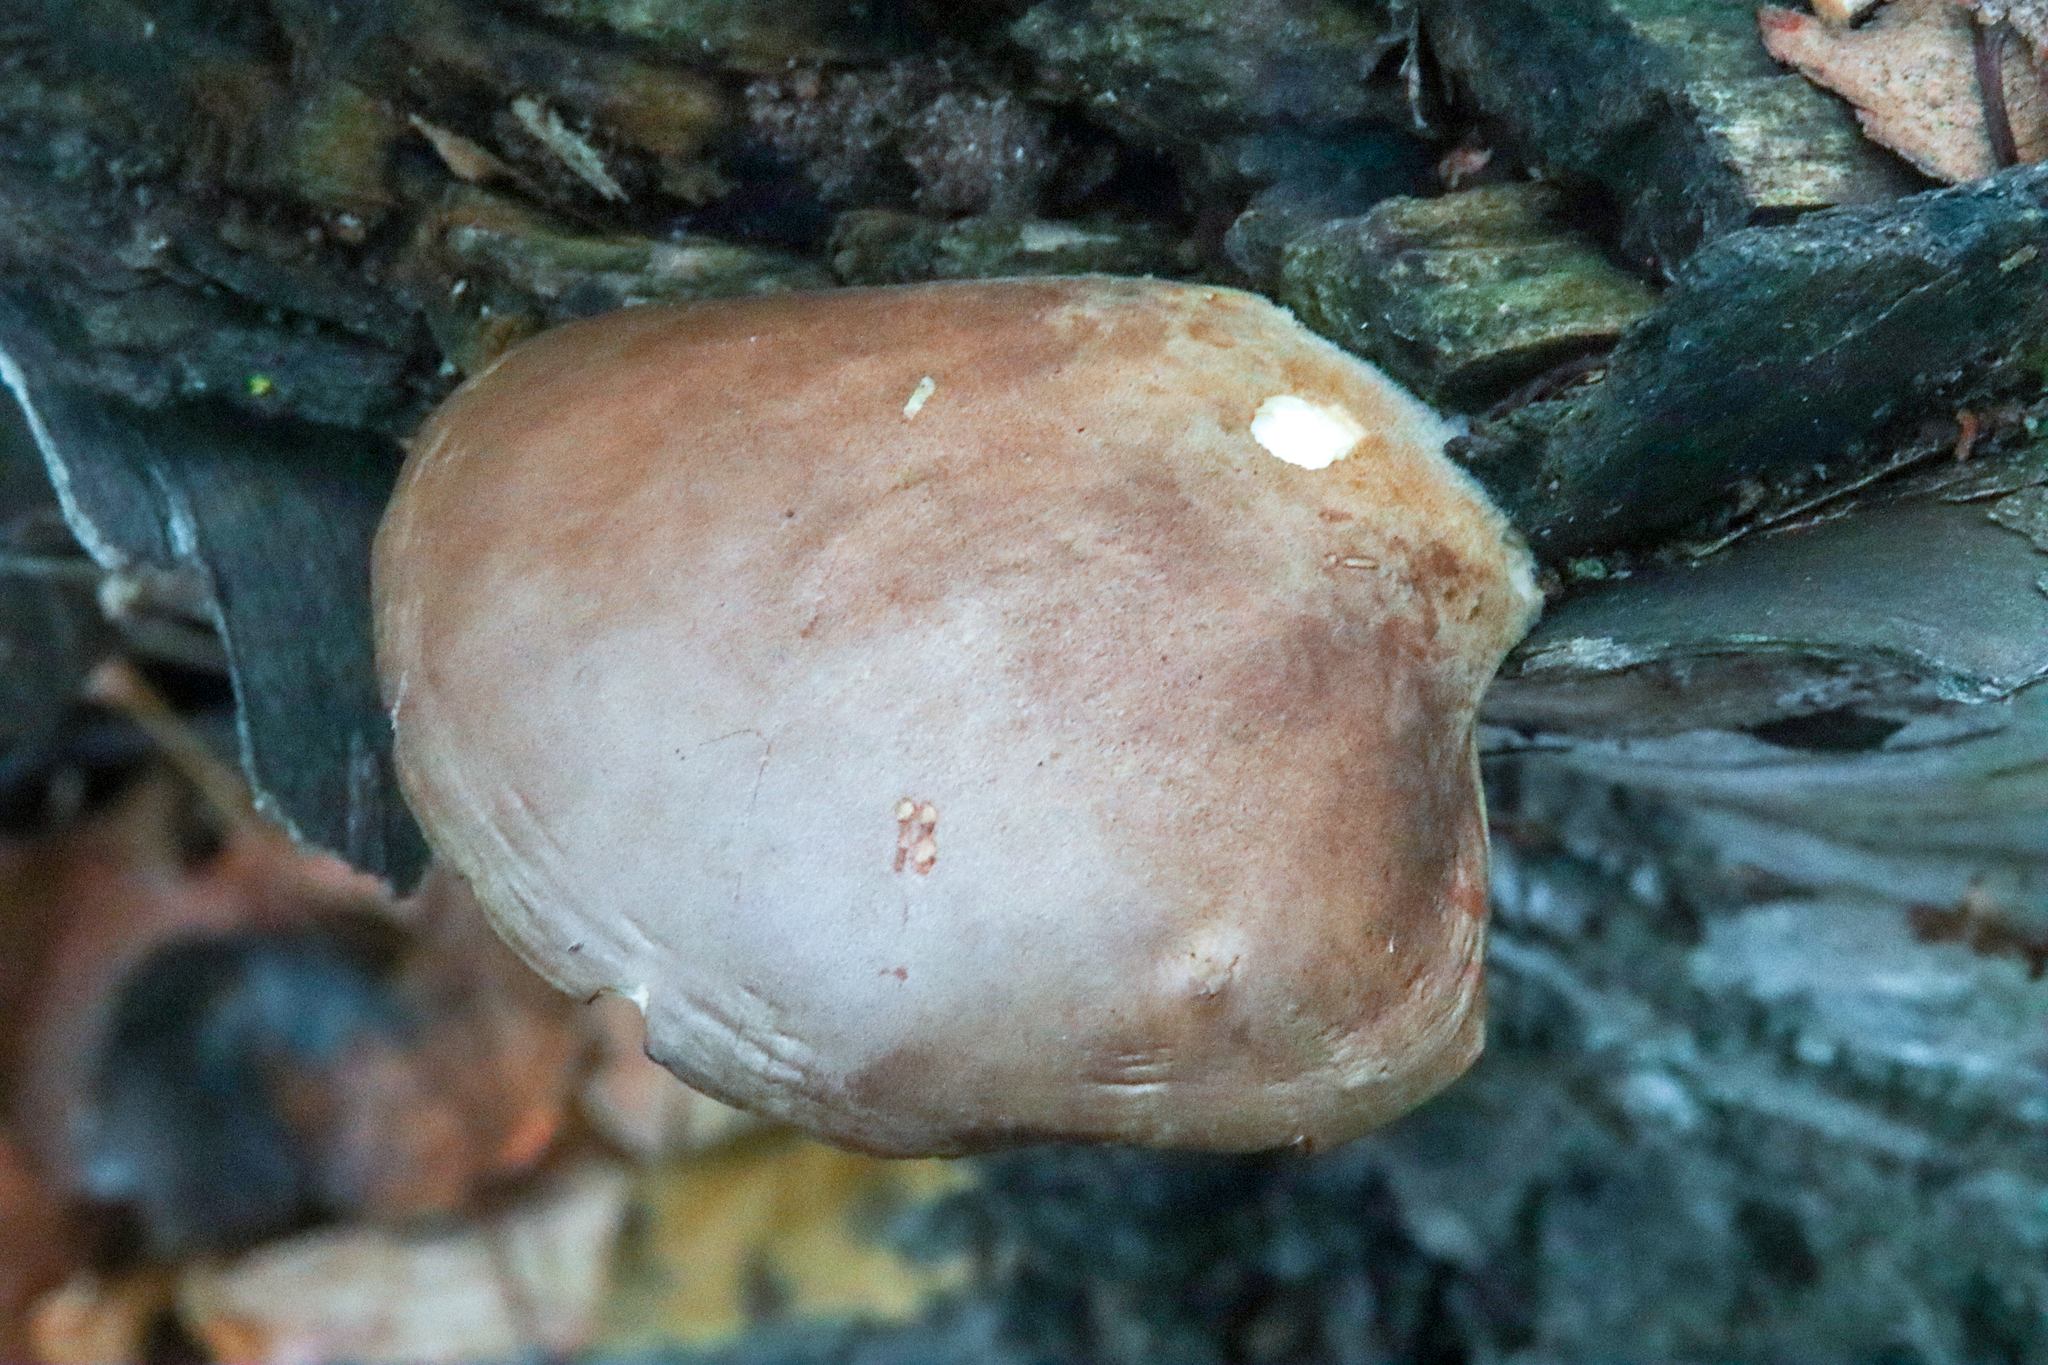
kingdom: Fungi
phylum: Basidiomycota
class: Agaricomycetes
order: Agaricales
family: Sarcomyxaceae
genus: Sarcomyxa
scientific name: Sarcomyxa serotina
